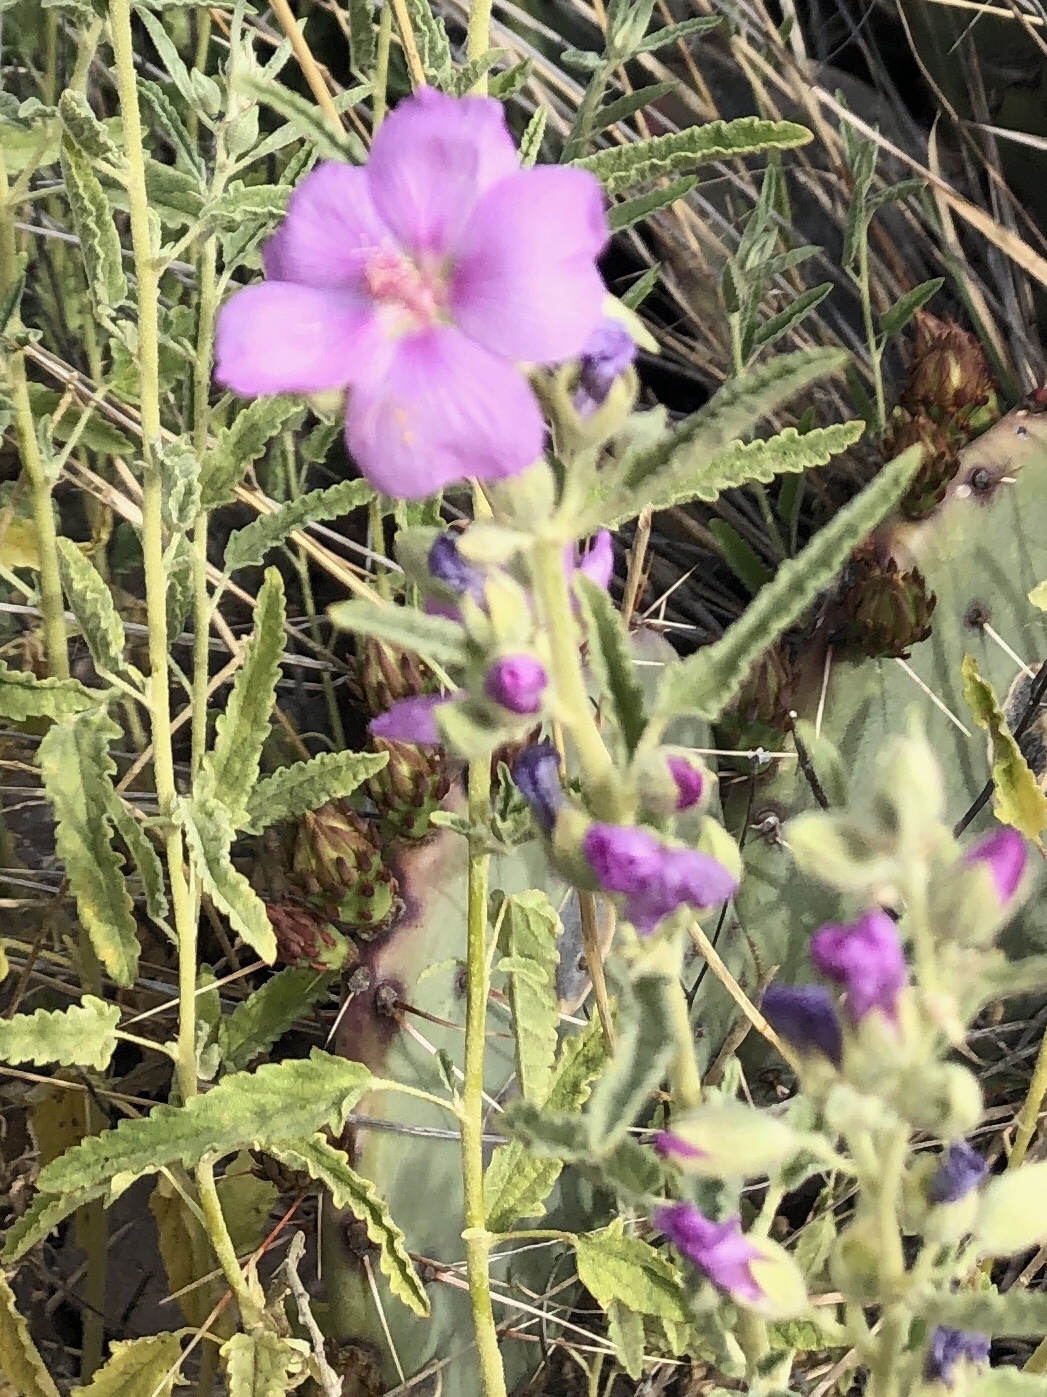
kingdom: Plantae
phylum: Tracheophyta
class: Magnoliopsida
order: Malvales
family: Malvaceae
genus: Sphaeralcea
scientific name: Sphaeralcea angustifolia
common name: Copper globe-mallow
